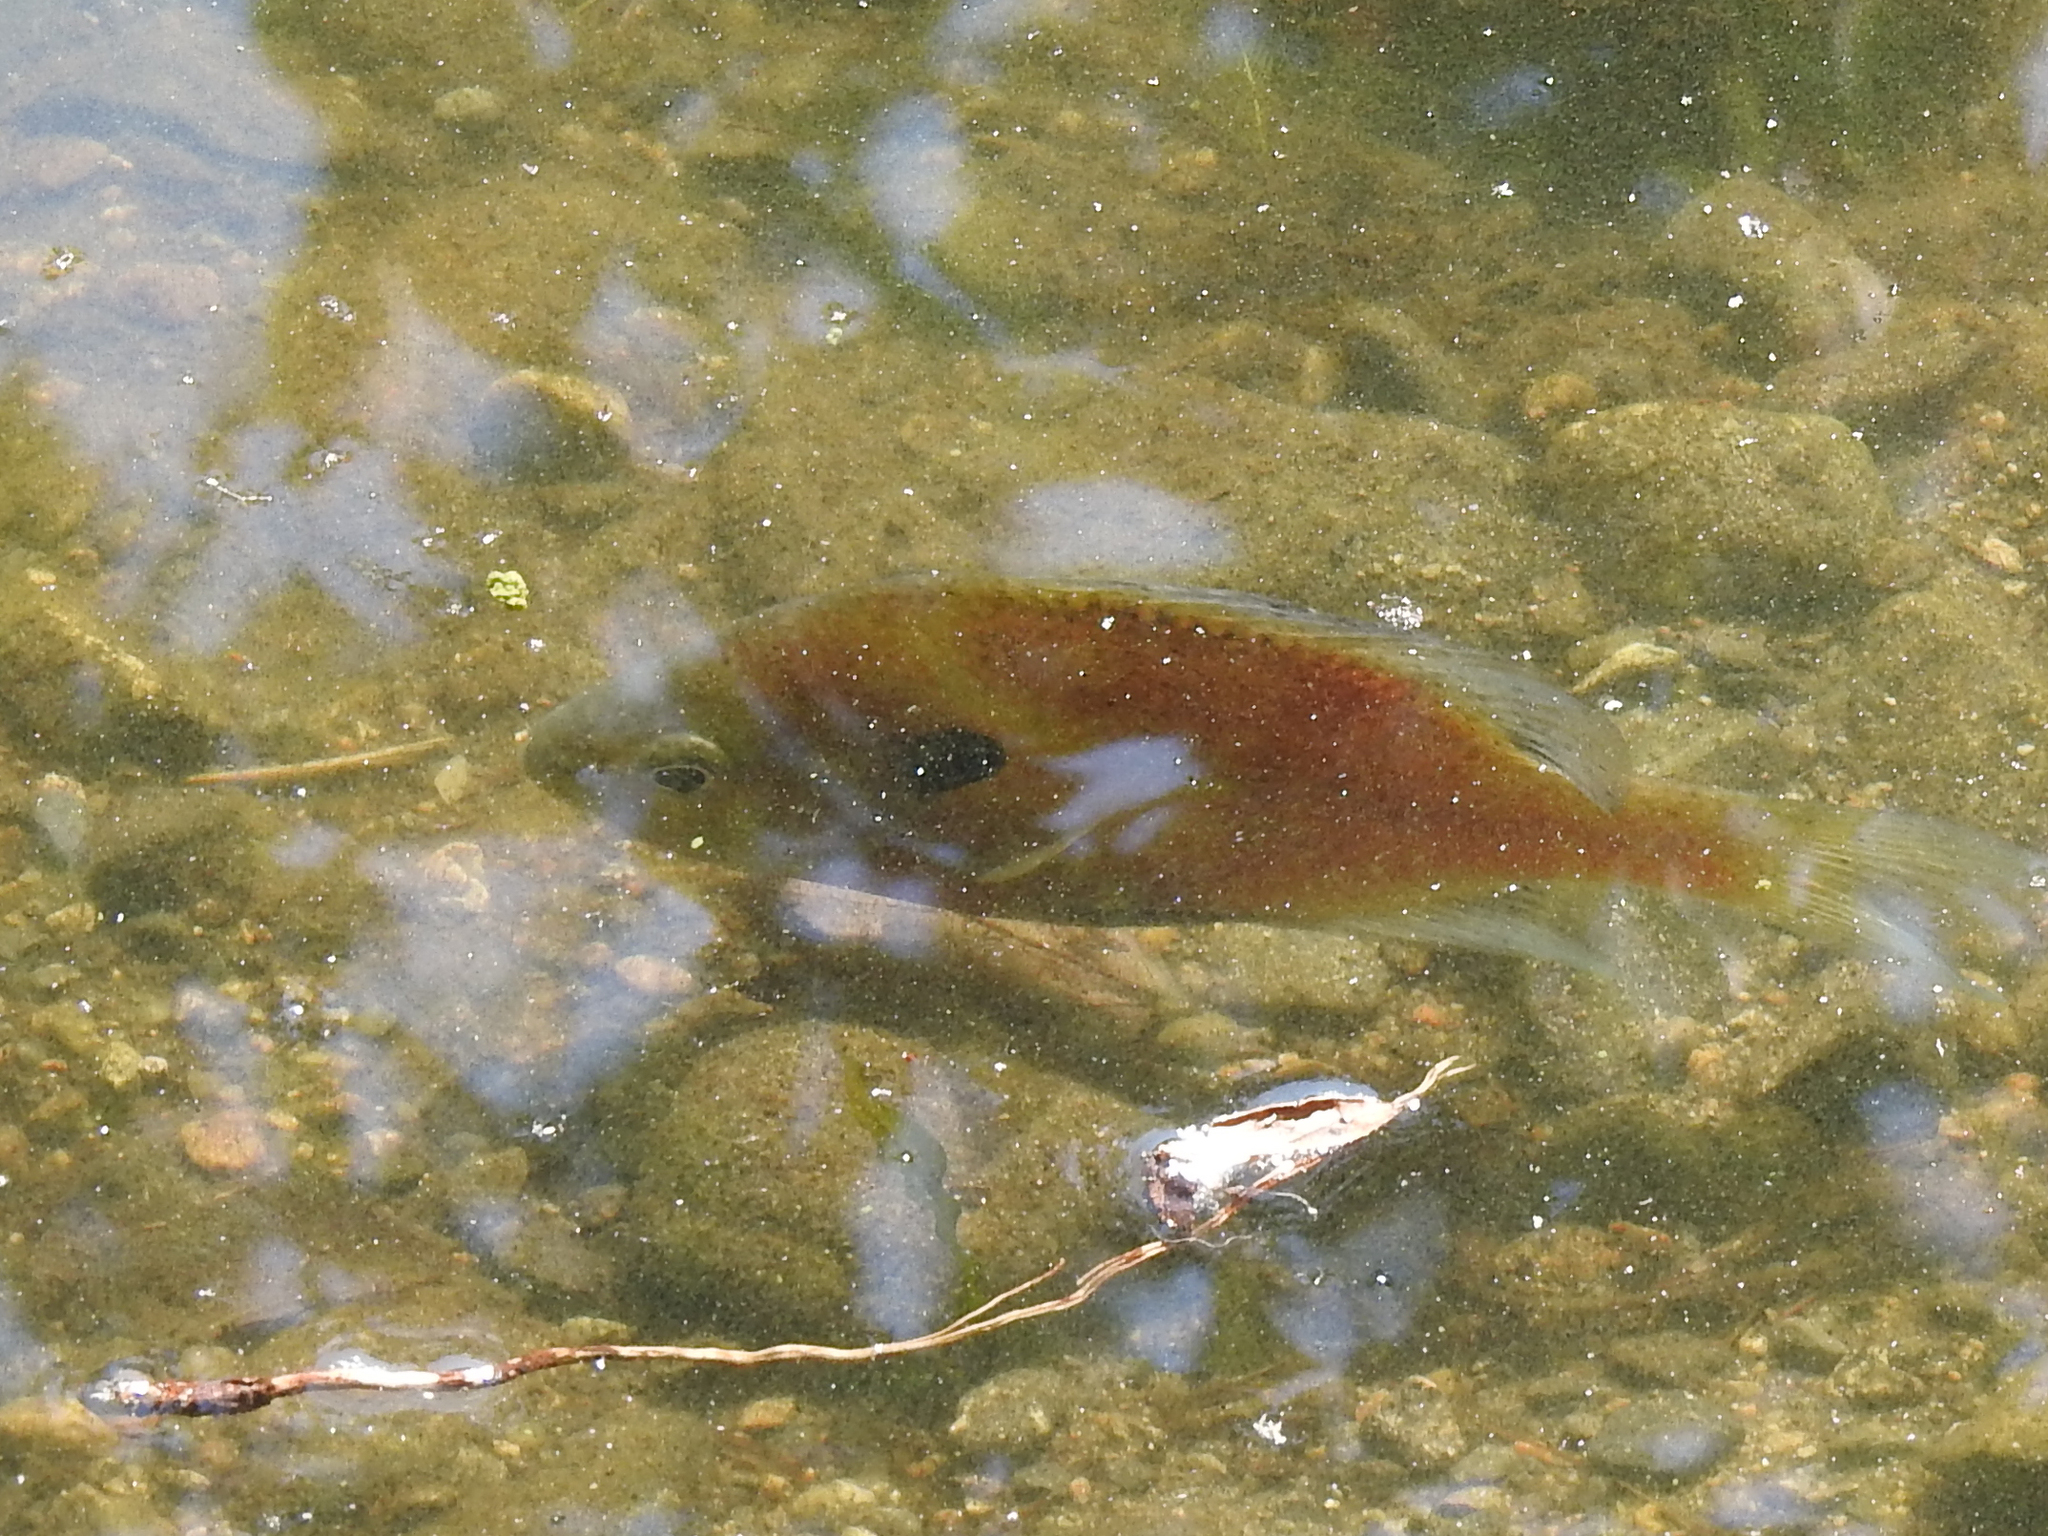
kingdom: Animalia
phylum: Chordata
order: Perciformes
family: Centrarchidae
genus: Lepomis
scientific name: Lepomis macrochirus
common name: Bluegill
